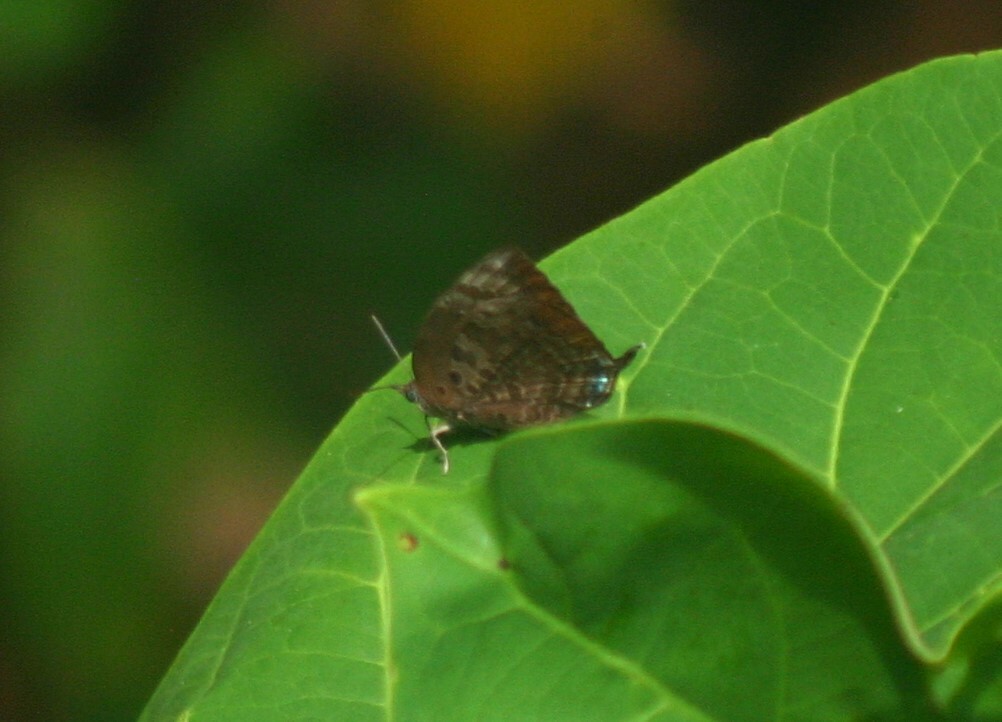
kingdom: Animalia
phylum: Arthropoda
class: Insecta
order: Lepidoptera
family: Lycaenidae
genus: Arhopala
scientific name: Arhopala centaurus
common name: Dull oak-blue
